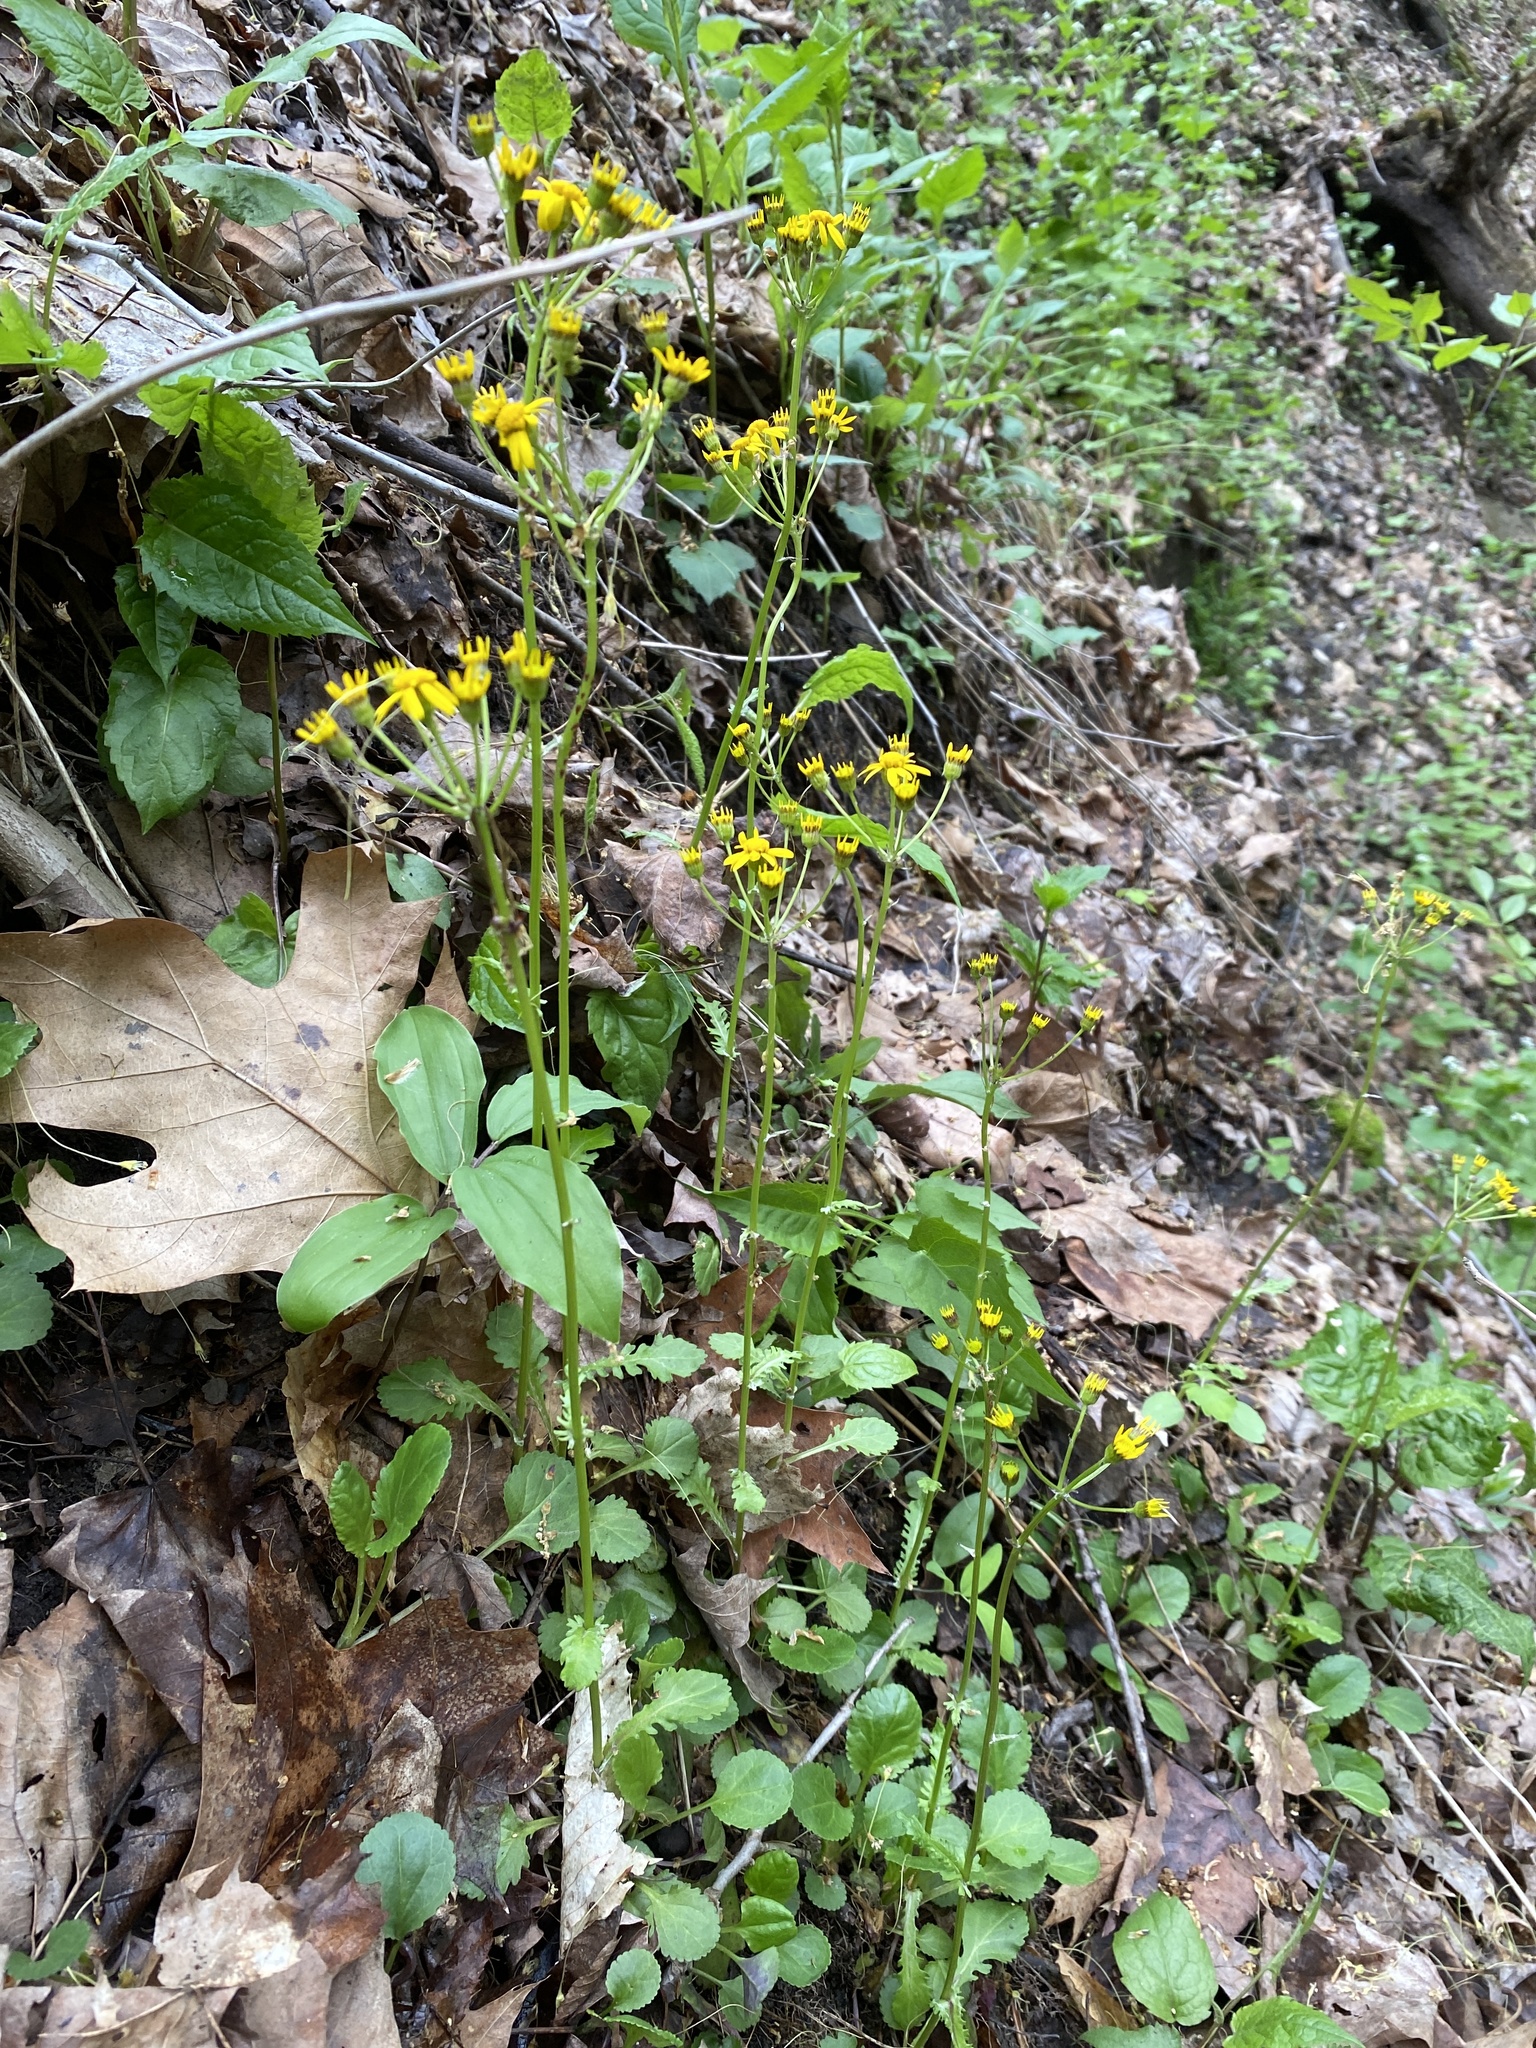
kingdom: Plantae
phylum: Tracheophyta
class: Magnoliopsida
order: Asterales
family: Asteraceae
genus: Packera
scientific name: Packera aurea
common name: Golden groundsel
